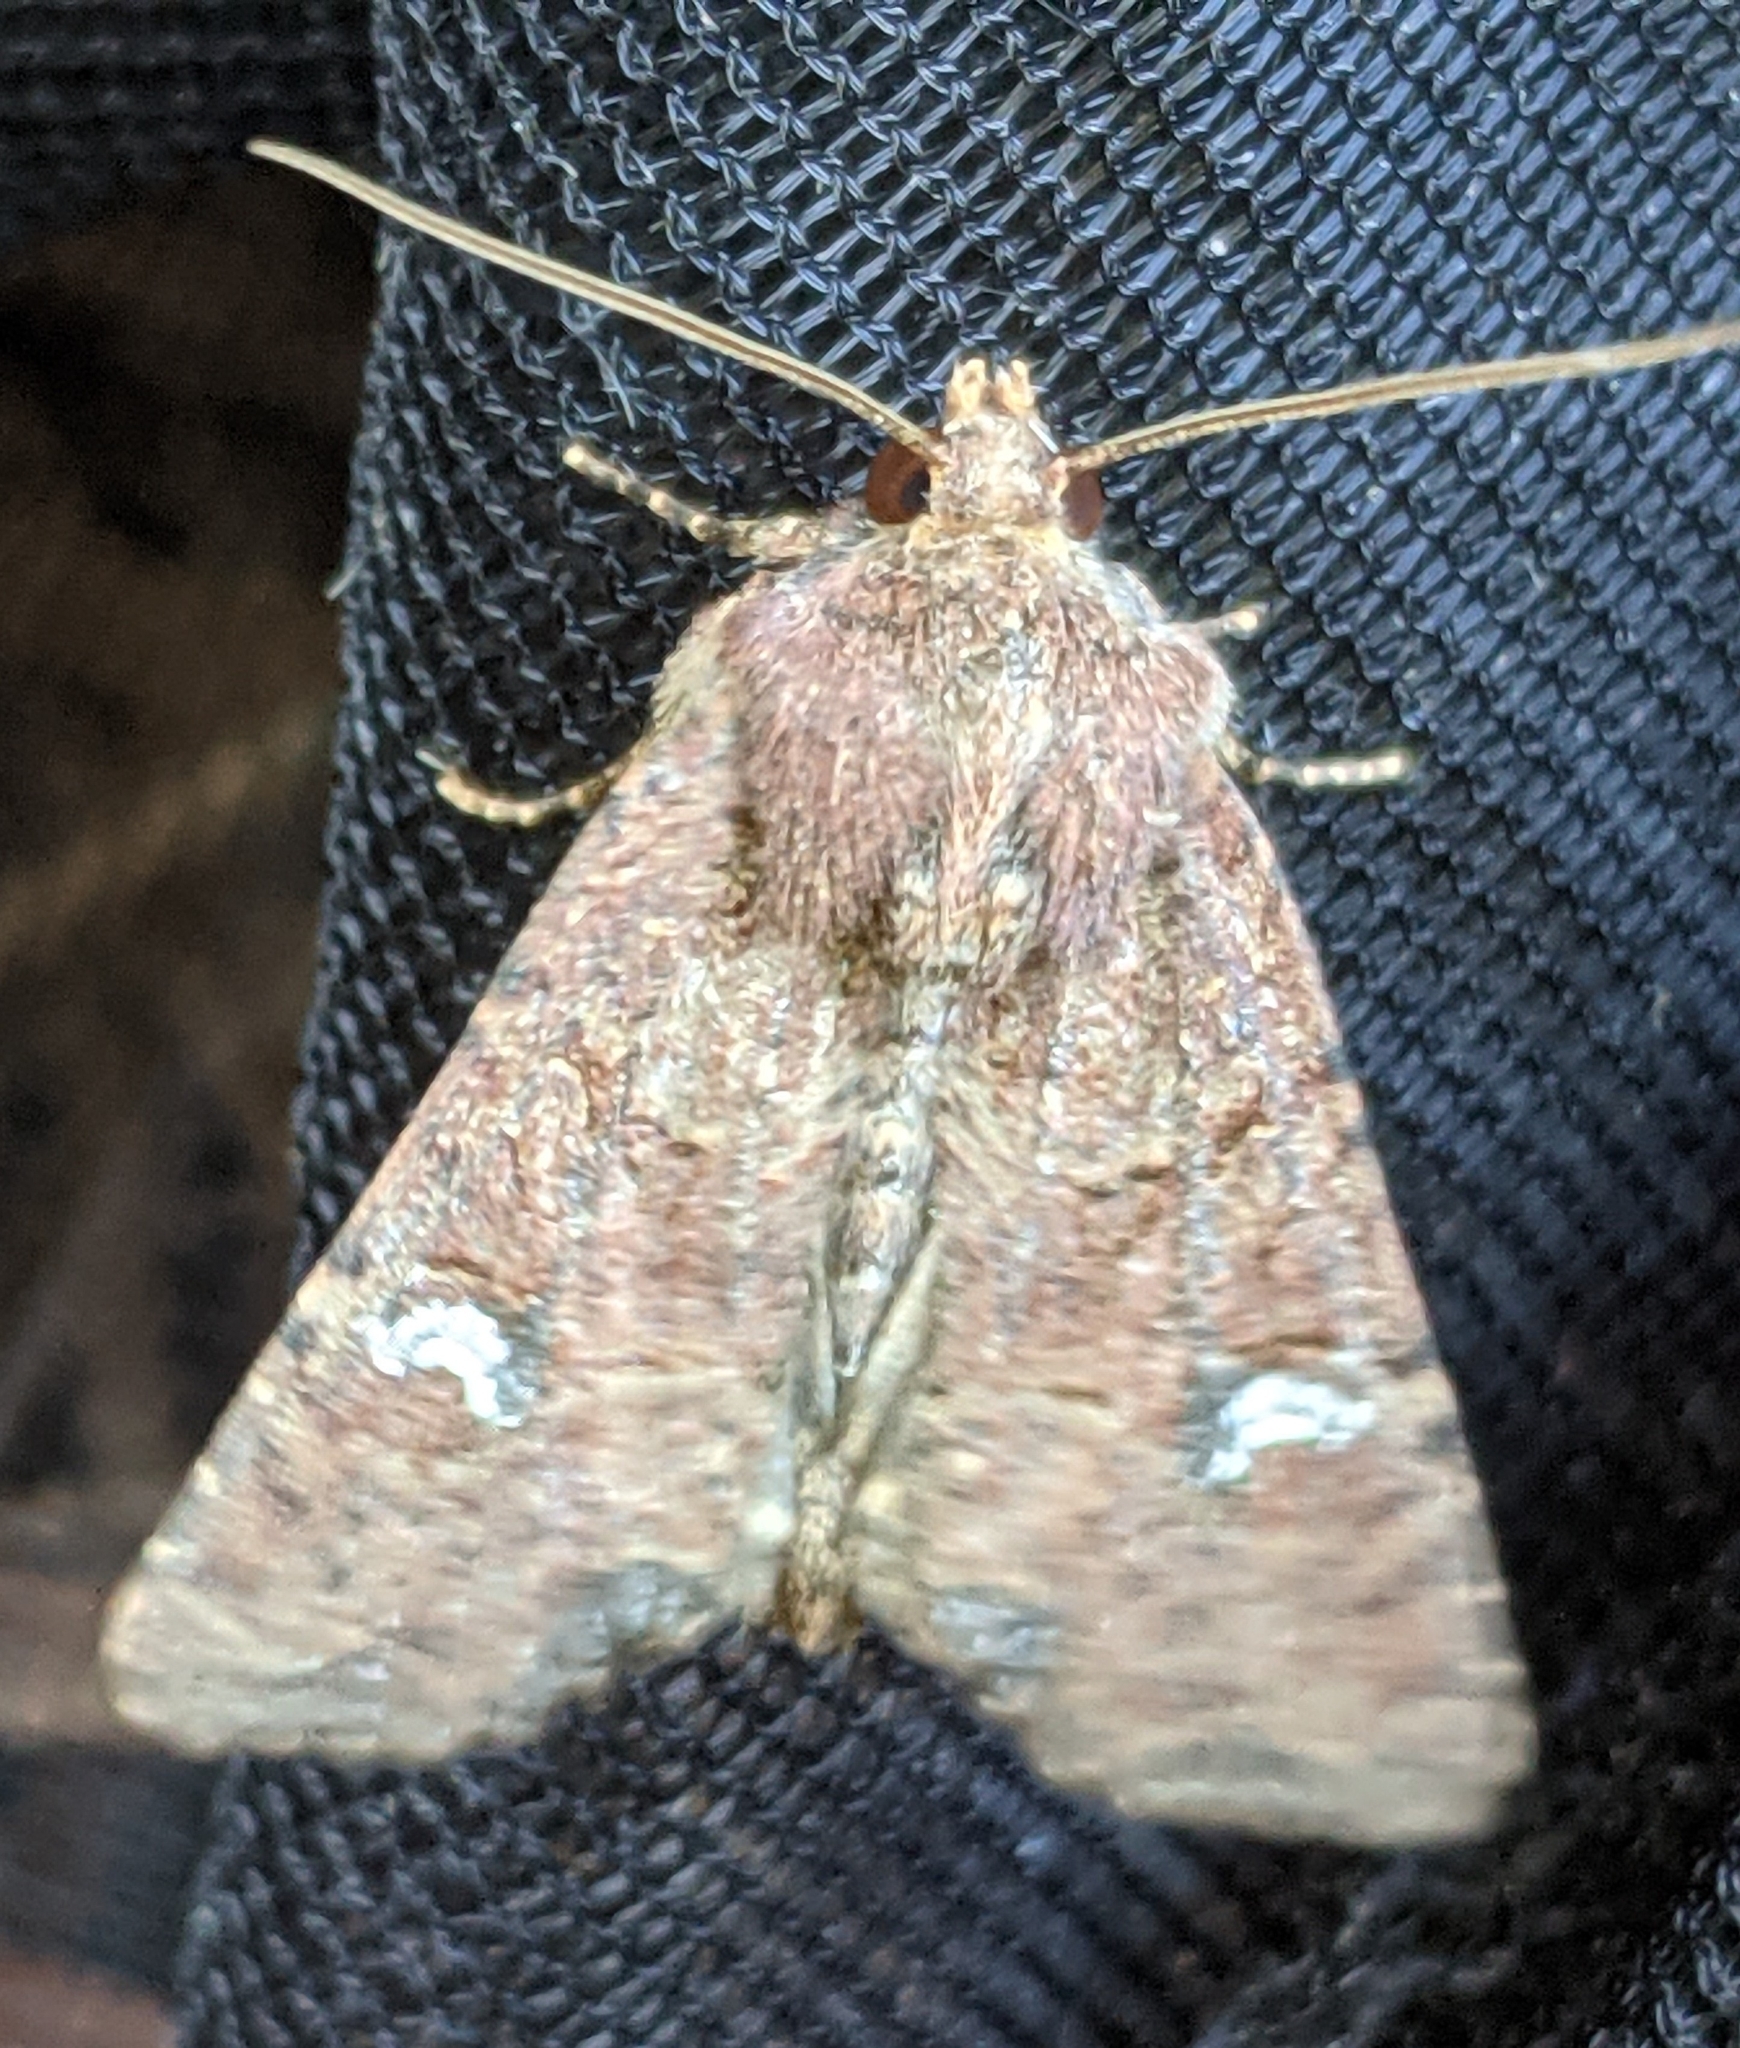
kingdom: Animalia
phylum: Arthropoda
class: Insecta
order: Lepidoptera
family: Noctuidae
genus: Mesapamea
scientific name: Mesapamea secalis
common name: Common rustic
